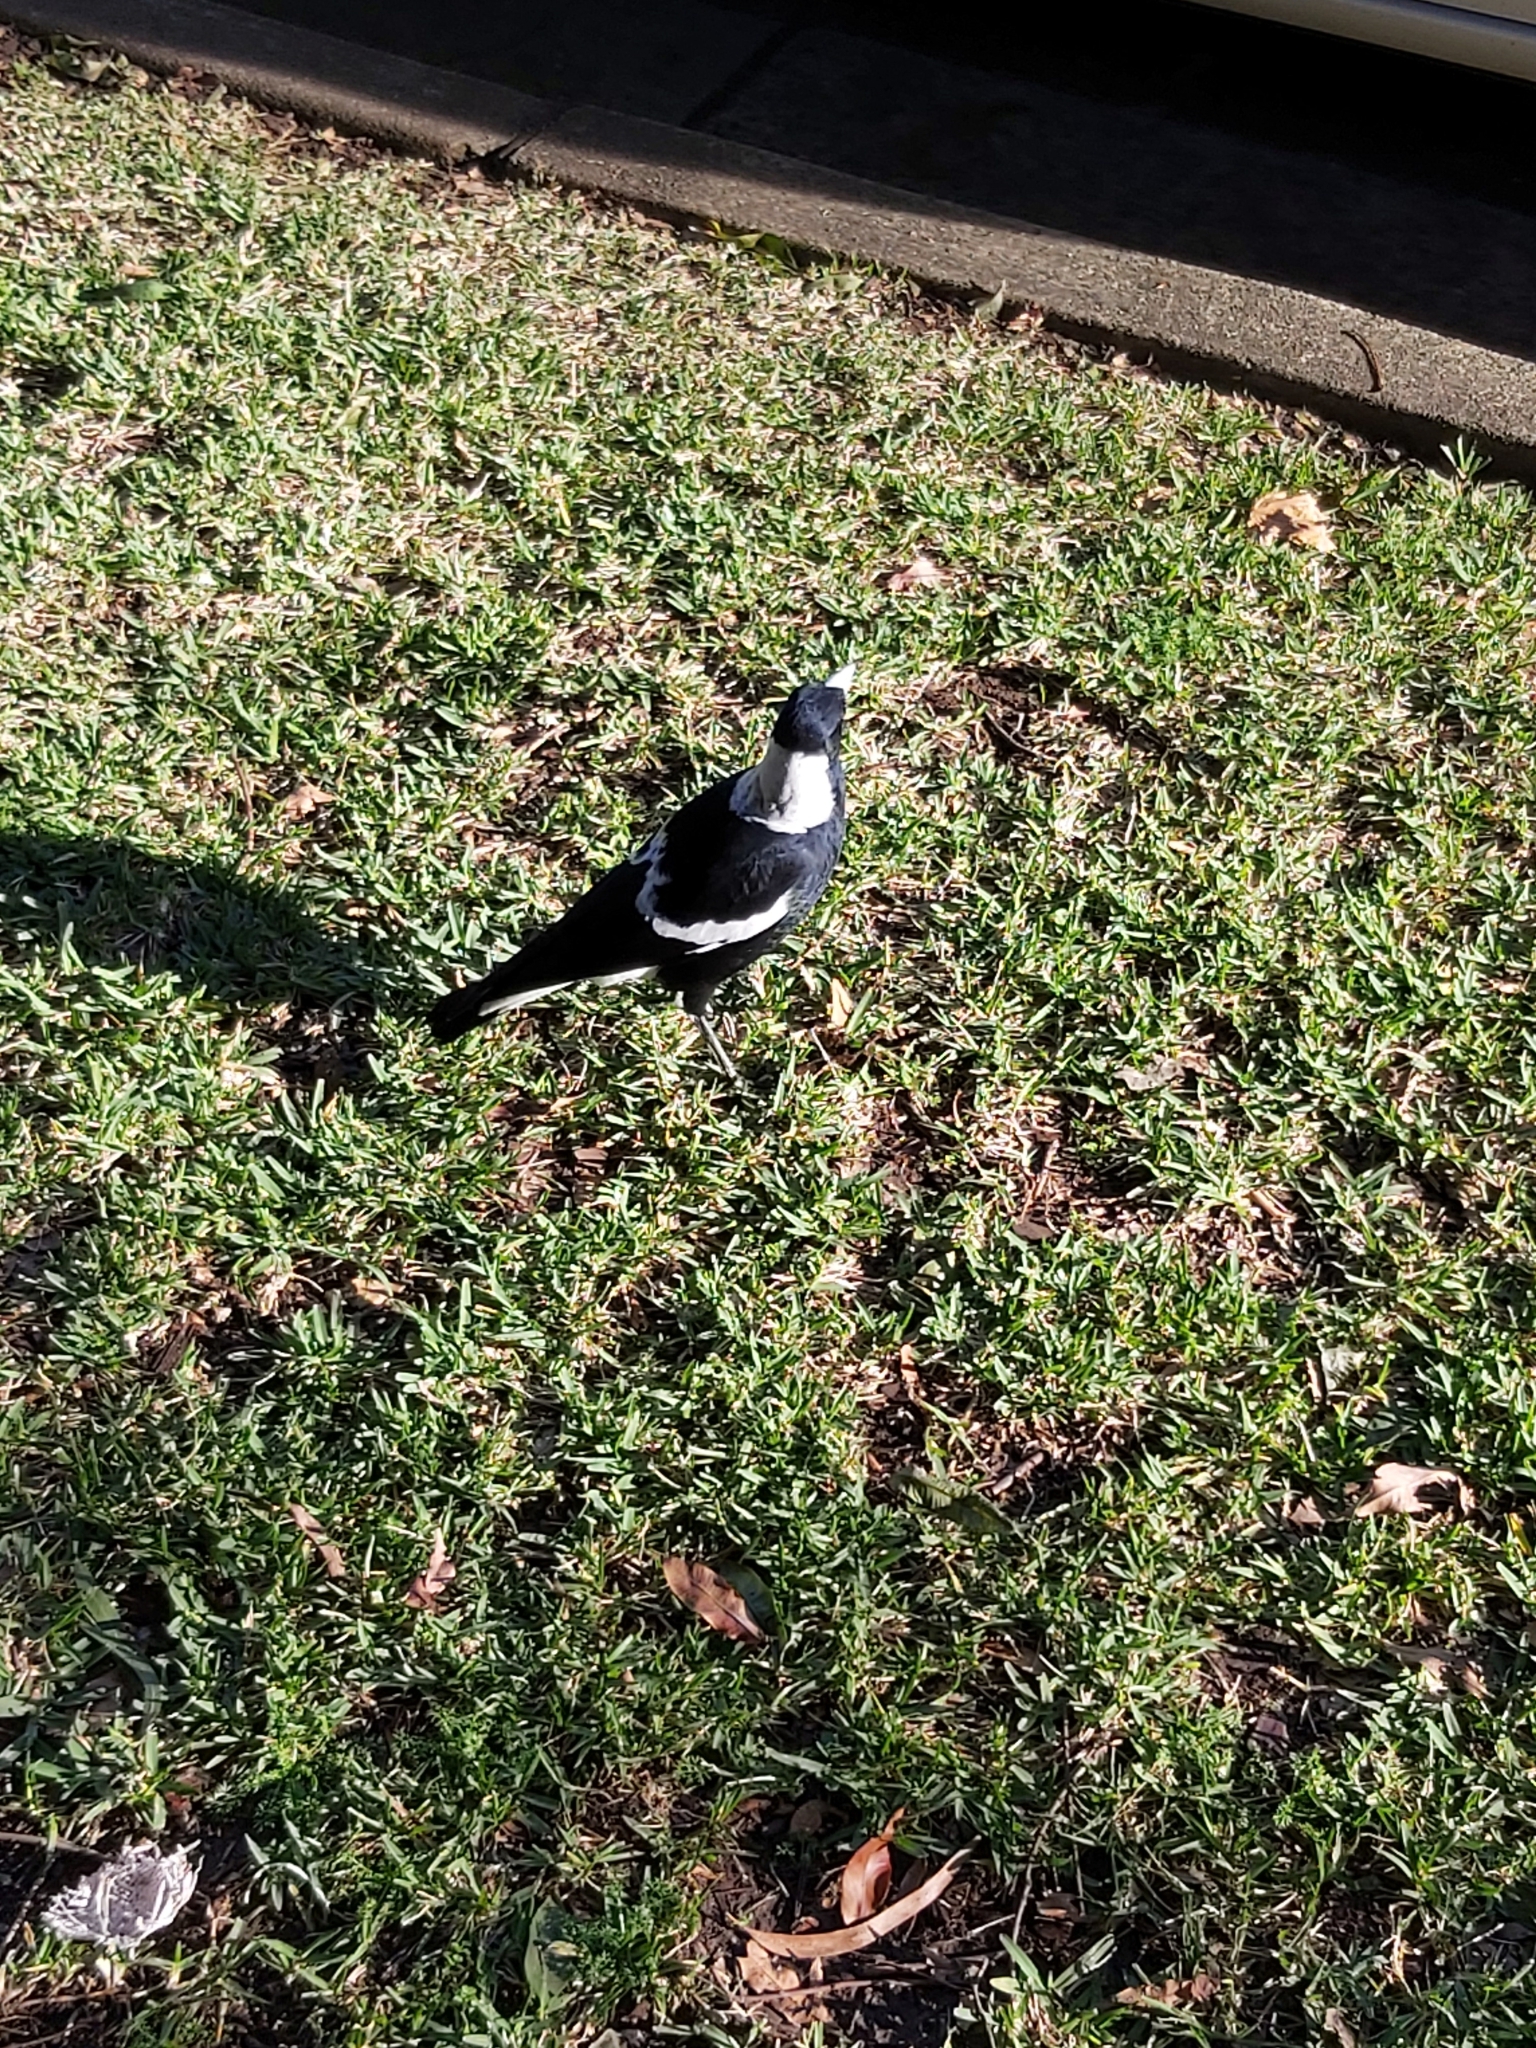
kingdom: Animalia
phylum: Chordata
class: Aves
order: Passeriformes
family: Cracticidae
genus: Gymnorhina
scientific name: Gymnorhina tibicen
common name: Australian magpie
